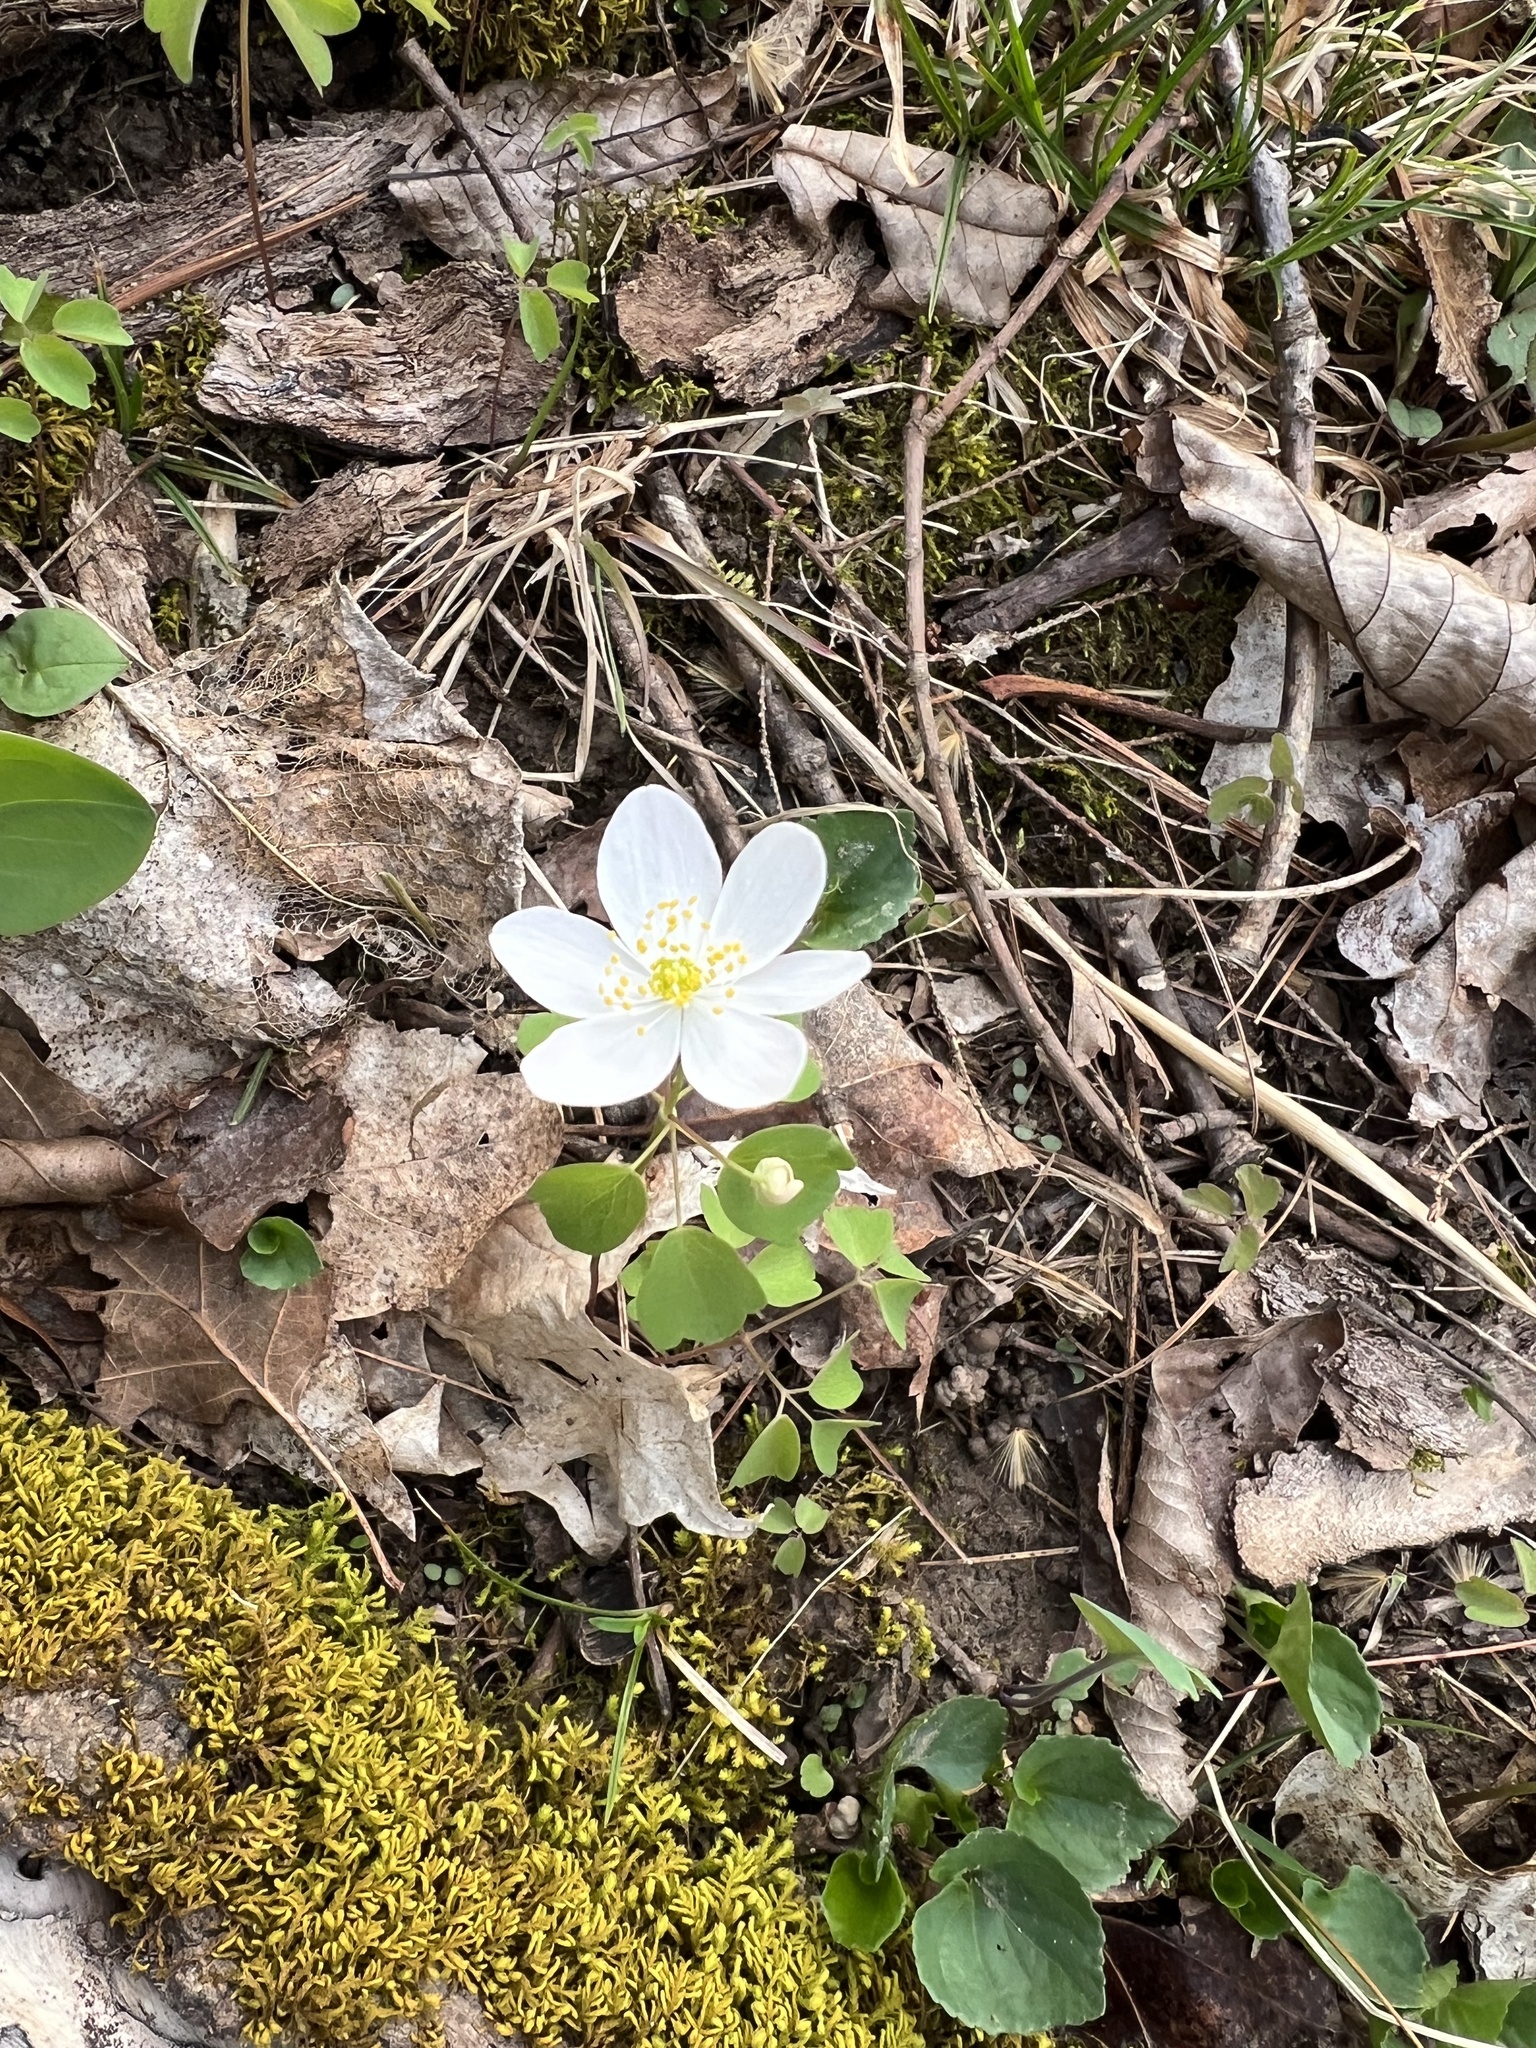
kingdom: Plantae
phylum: Tracheophyta
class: Magnoliopsida
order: Ranunculales
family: Ranunculaceae
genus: Thalictrum
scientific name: Thalictrum thalictroides
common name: Rue-anemone
